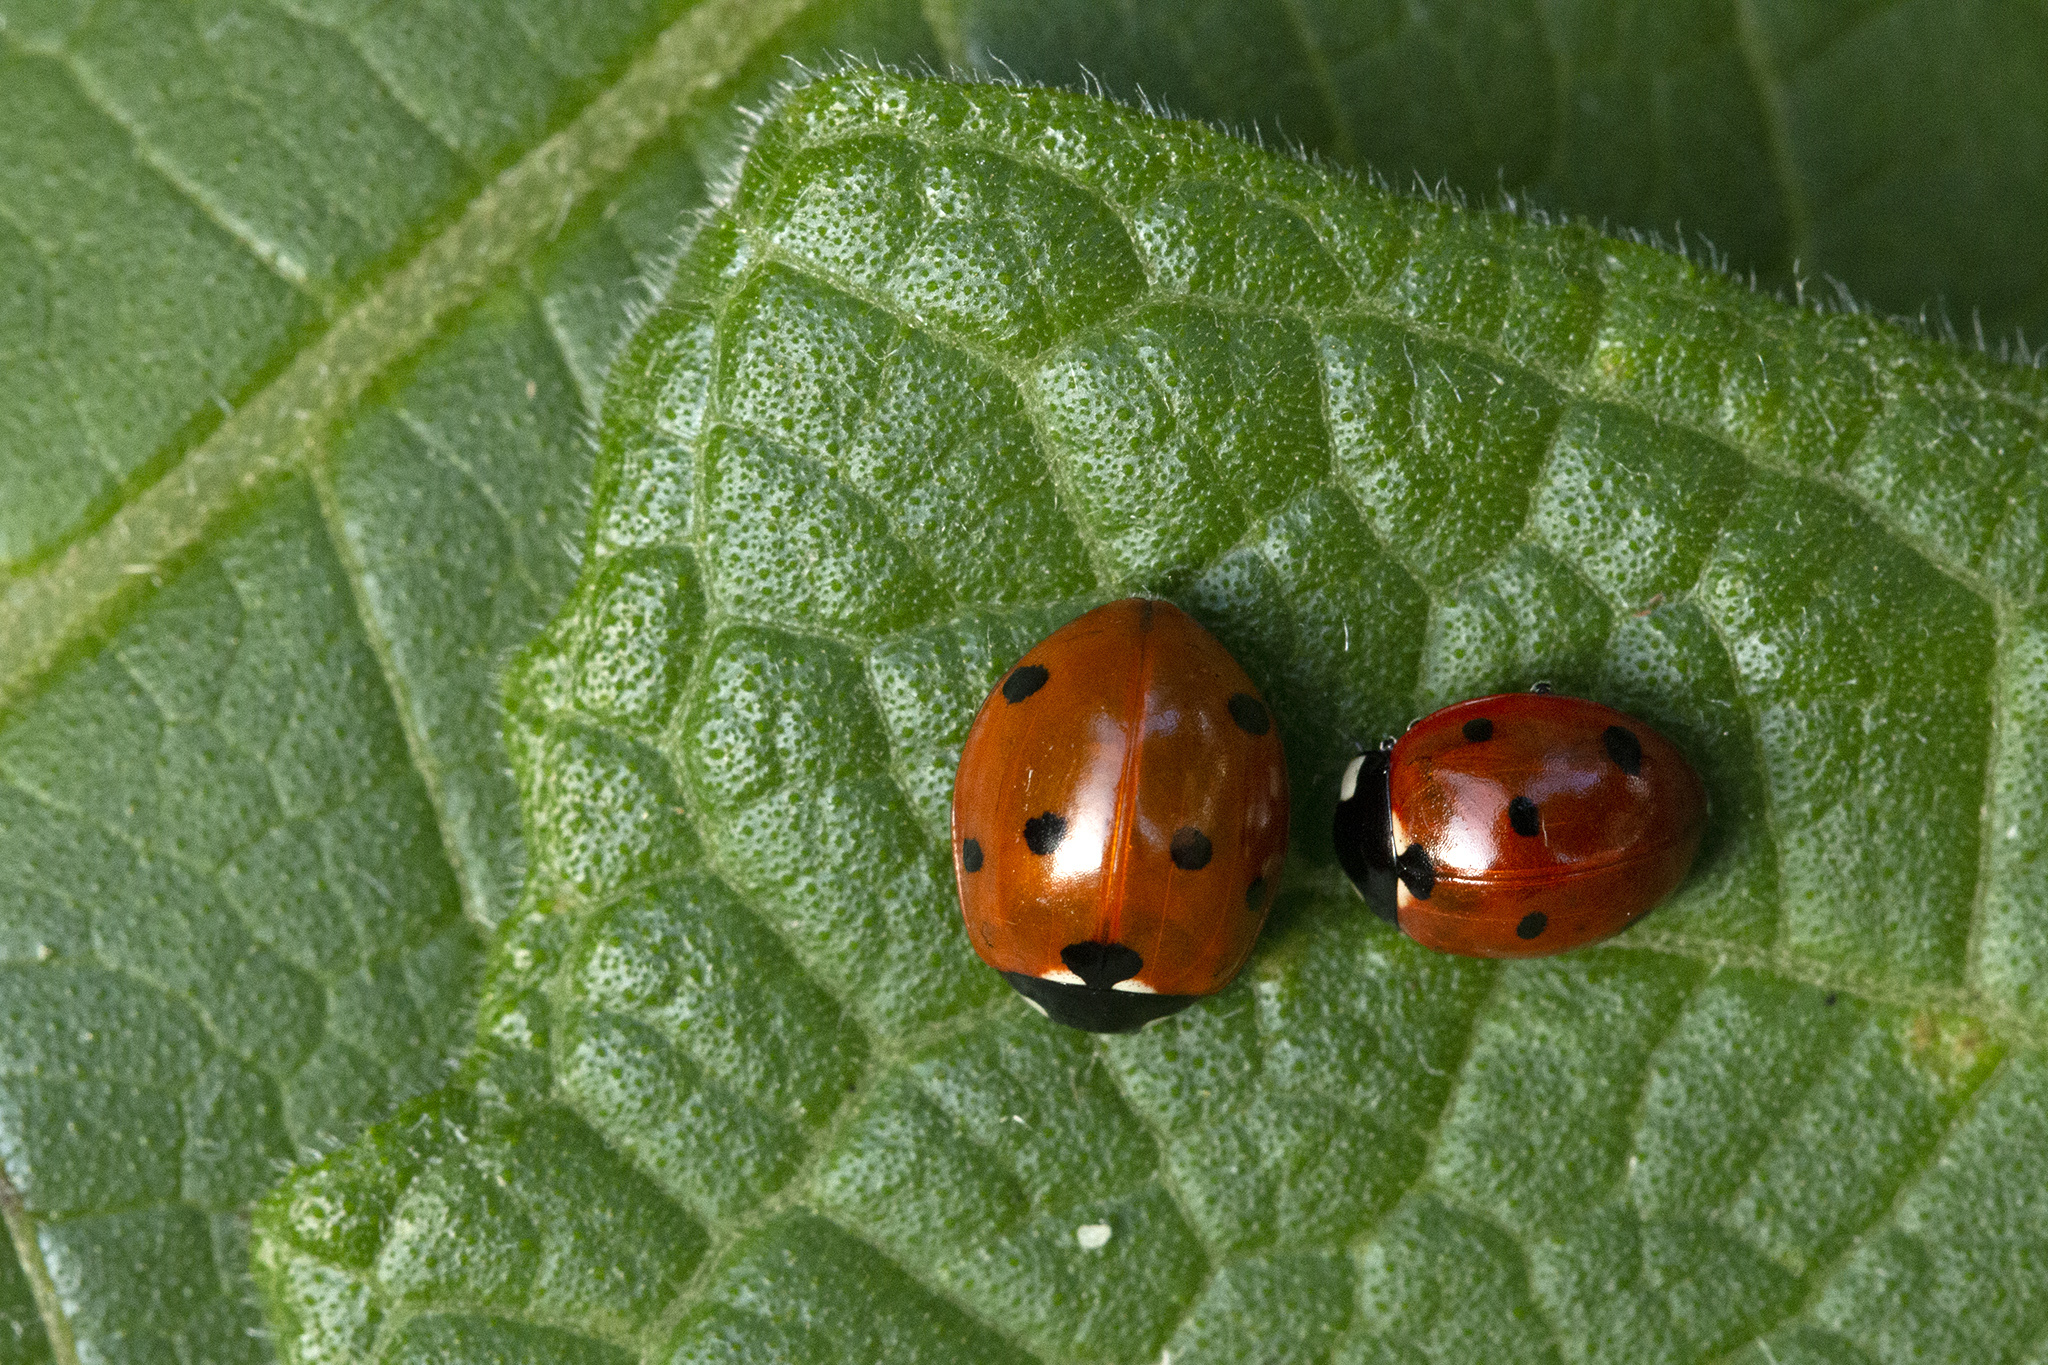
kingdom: Animalia
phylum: Arthropoda
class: Insecta
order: Coleoptera
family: Coccinellidae
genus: Coccinella
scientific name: Coccinella septempunctata
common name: Sevenspotted lady beetle
